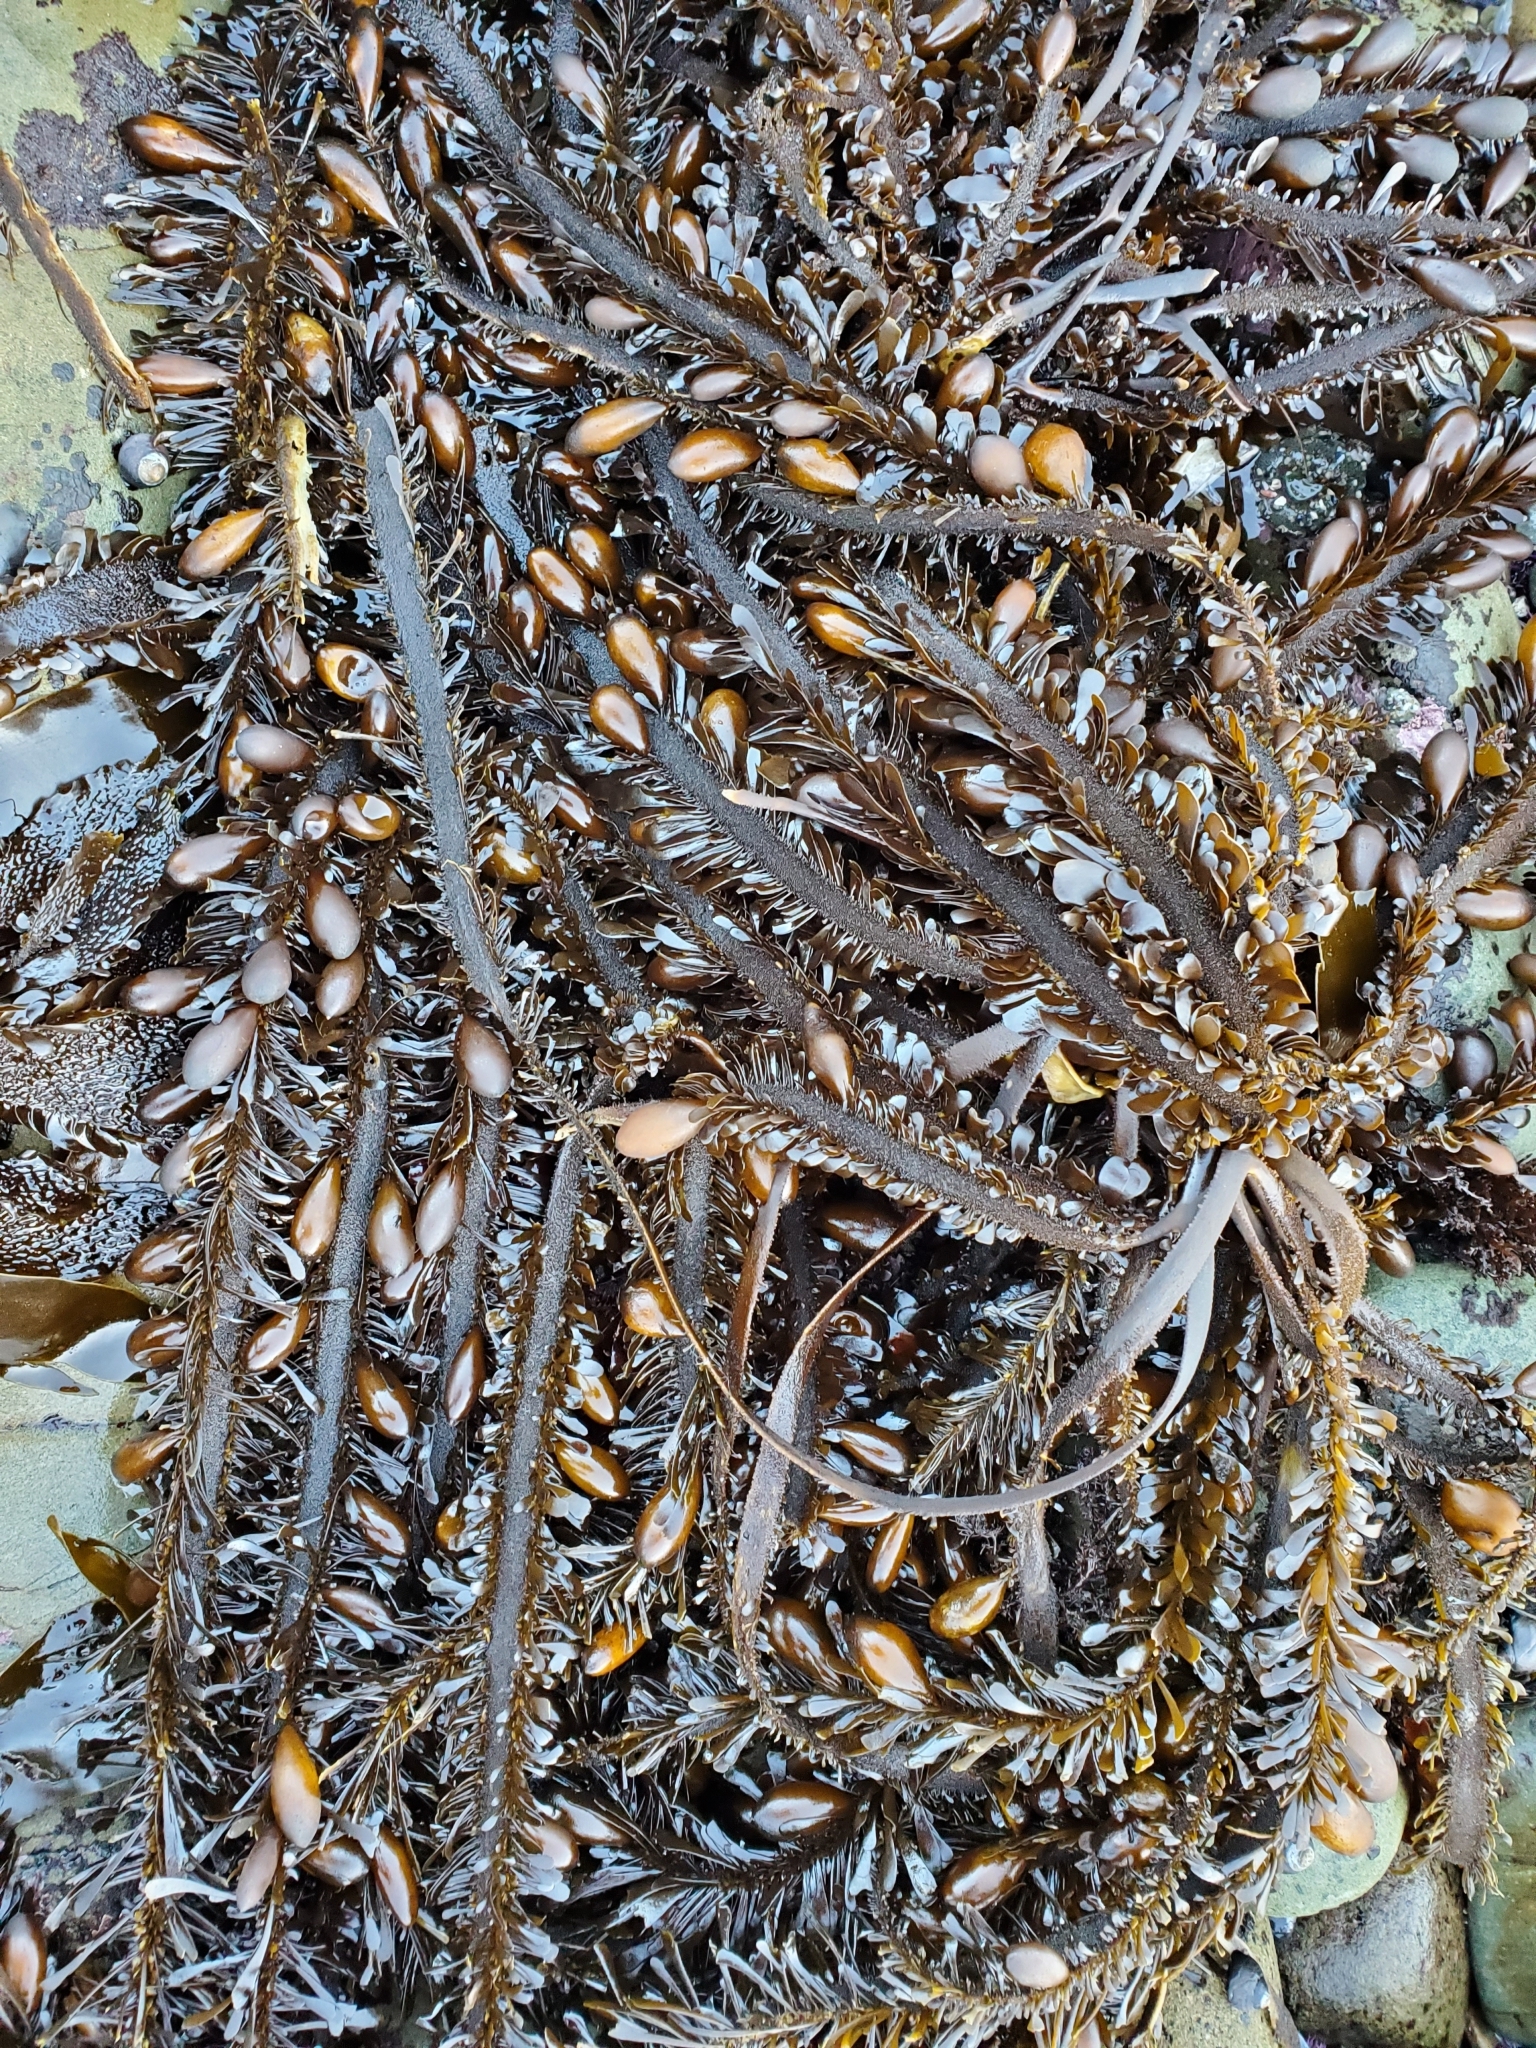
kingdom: Chromista
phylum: Ochrophyta
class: Phaeophyceae
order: Laminariales
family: Lessoniaceae
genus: Egregia
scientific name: Egregia menziesii
